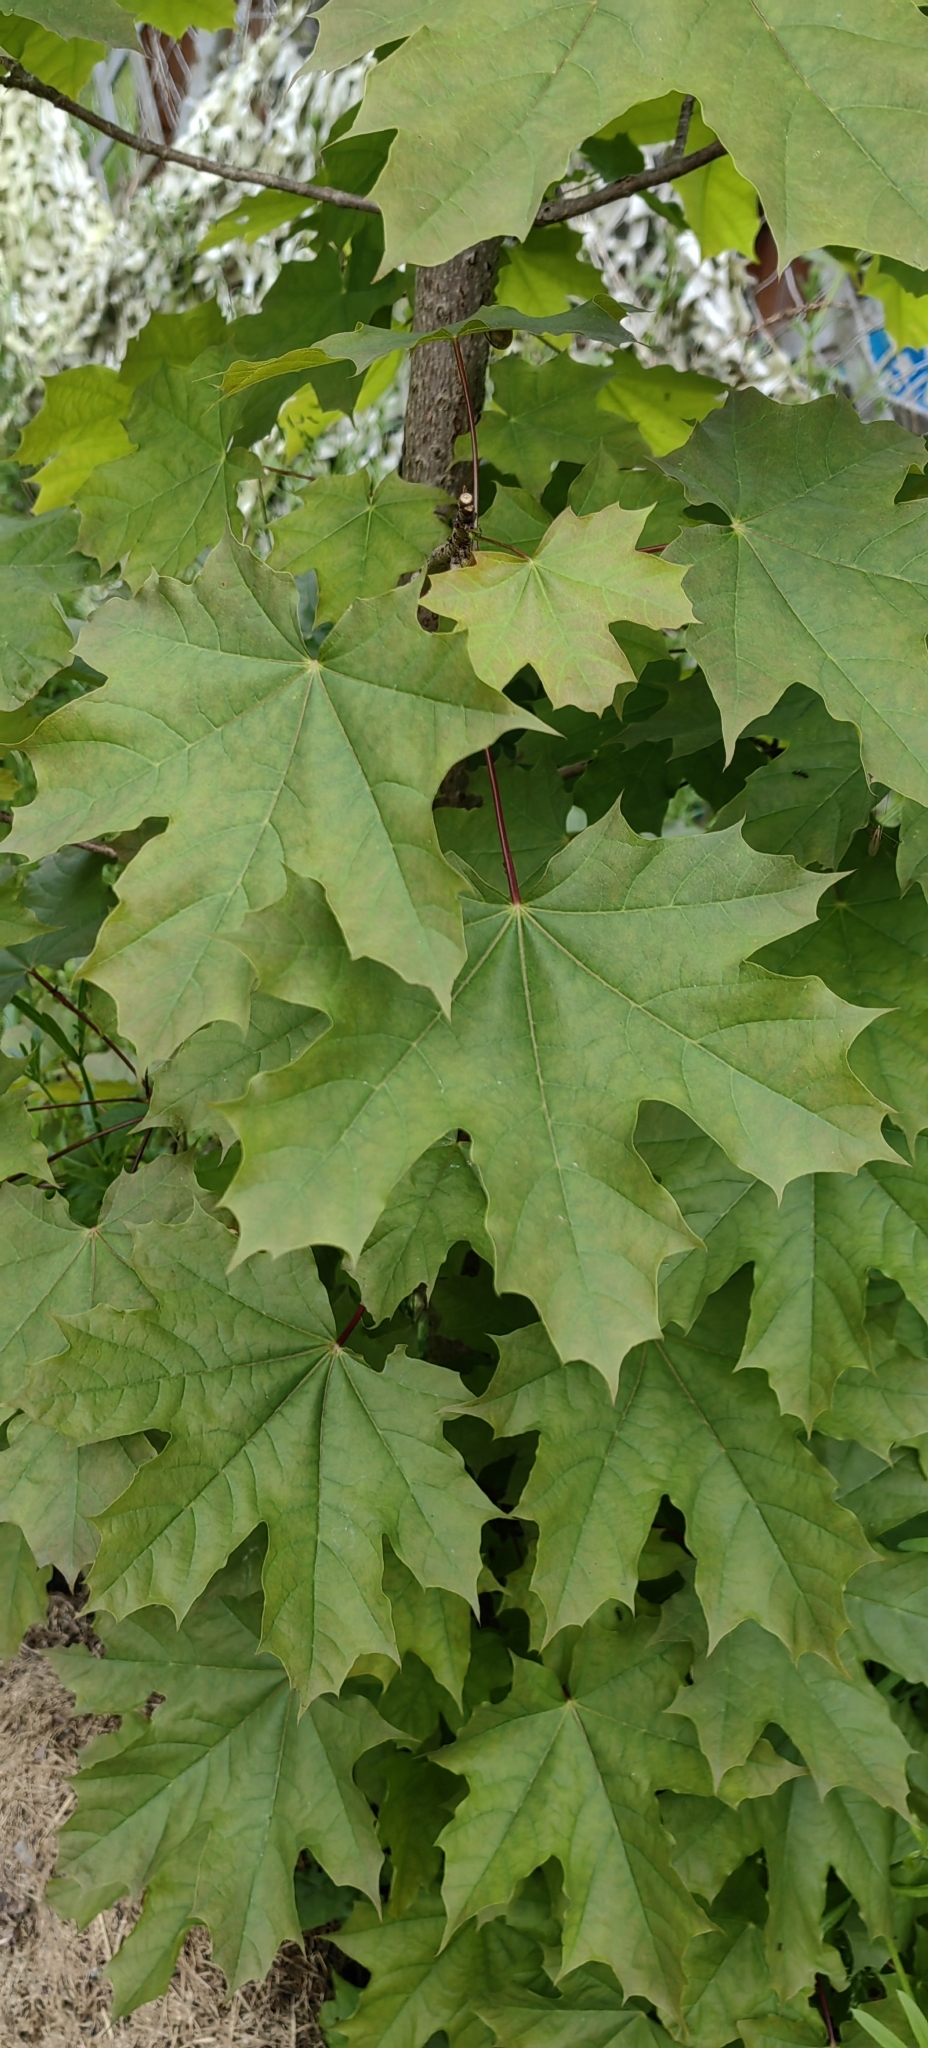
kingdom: Plantae
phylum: Tracheophyta
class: Magnoliopsida
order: Sapindales
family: Sapindaceae
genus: Acer
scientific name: Acer platanoides
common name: Norway maple
